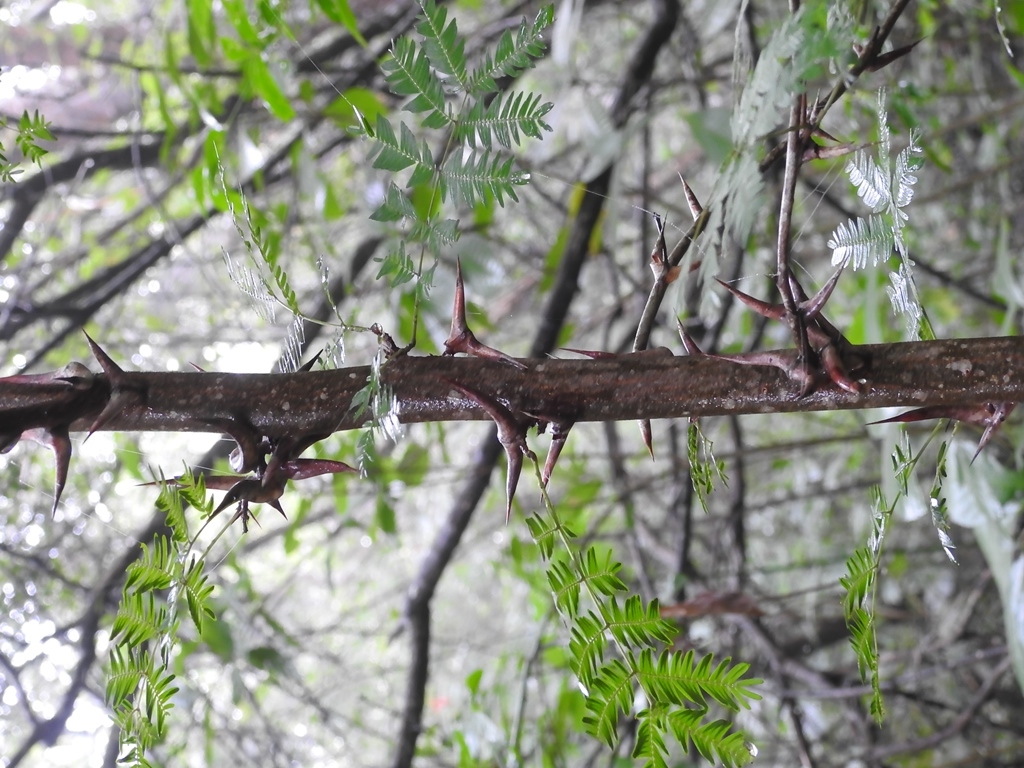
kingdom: Plantae
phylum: Tracheophyta
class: Magnoliopsida
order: Fabales
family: Fabaceae
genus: Vachellia
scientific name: Vachellia cornigera
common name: Bullhorn wattle
